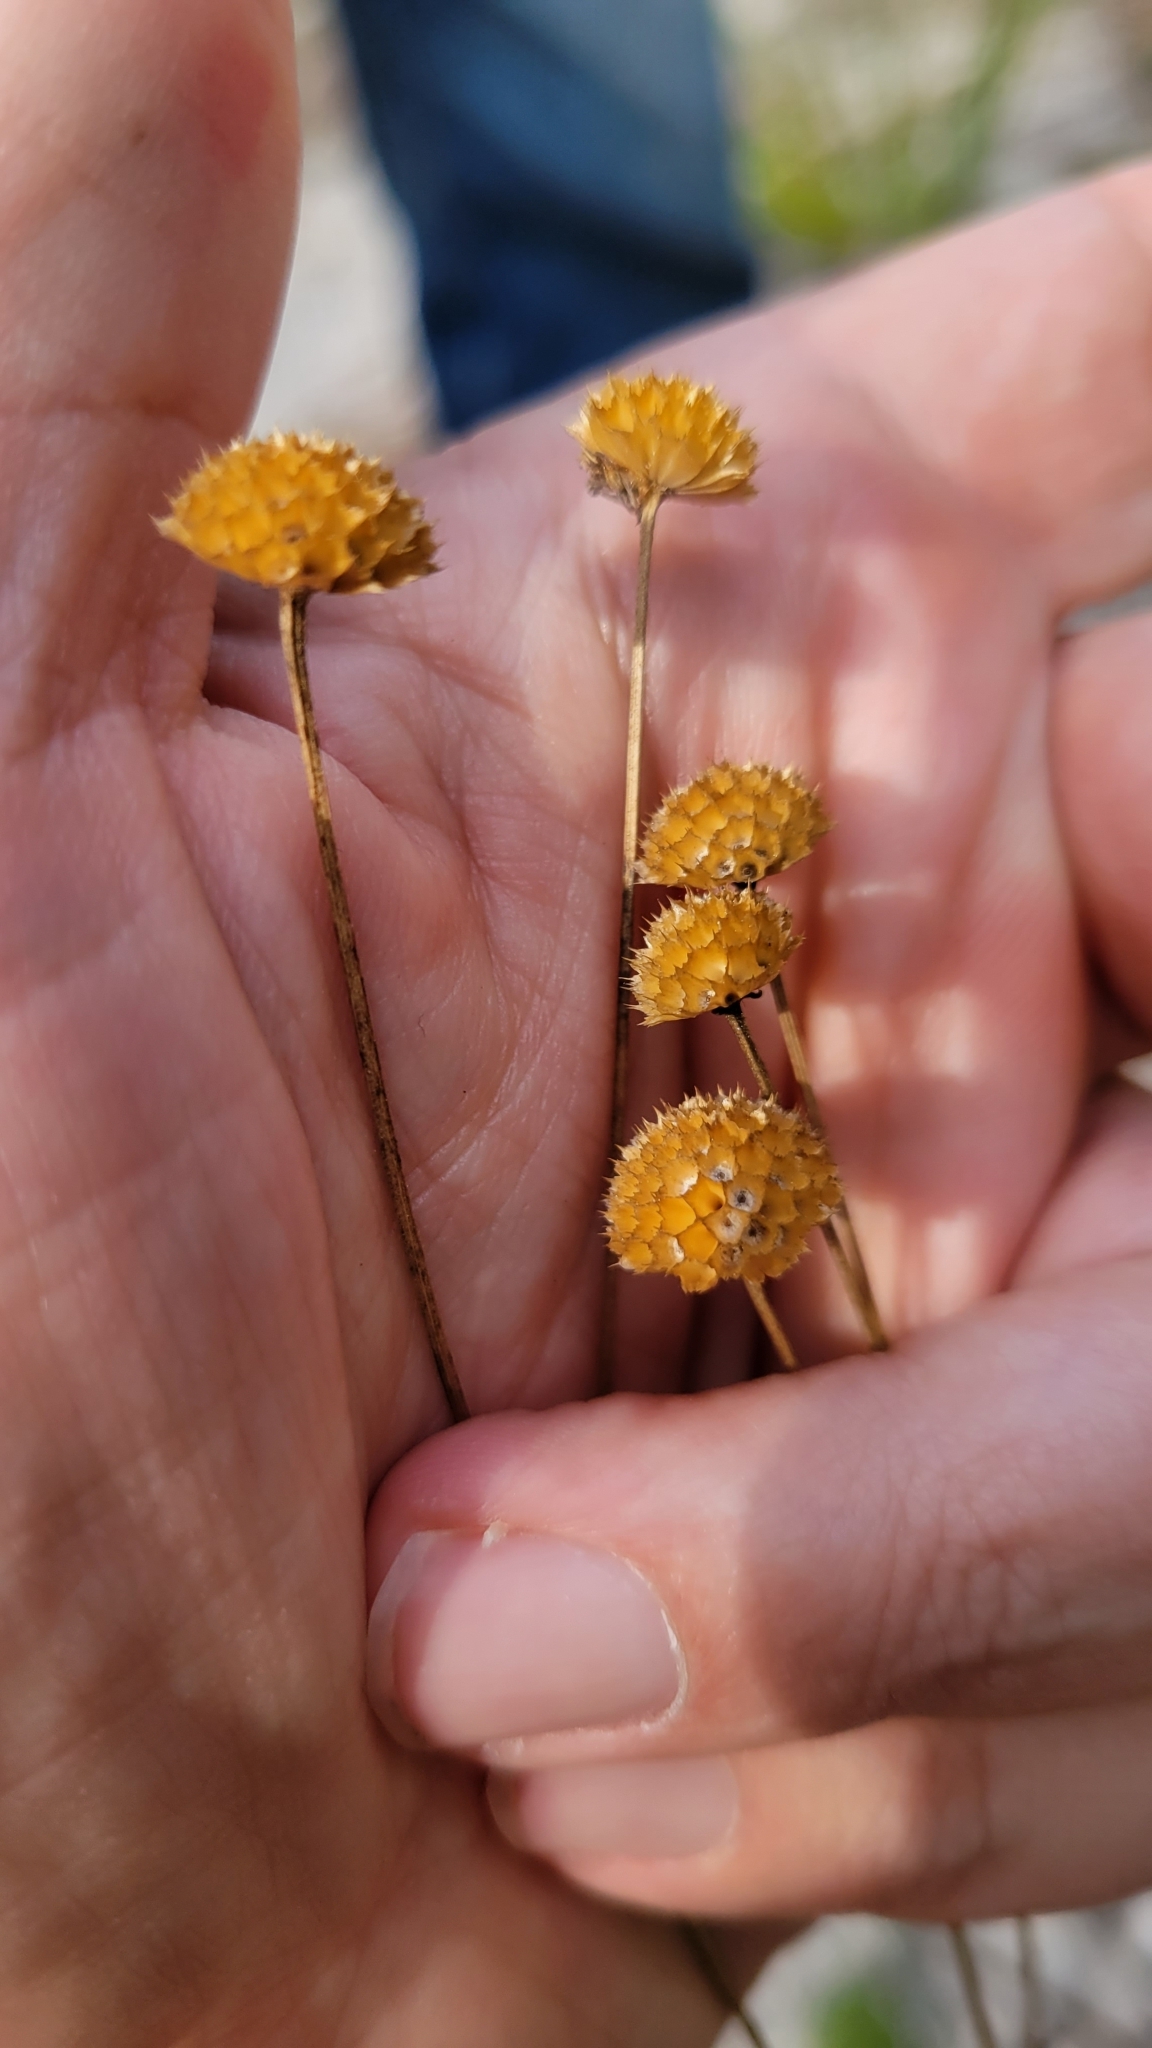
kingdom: Plantae
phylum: Tracheophyta
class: Magnoliopsida
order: Asterales
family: Asteraceae
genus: Balduina
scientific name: Balduina angustifolia
